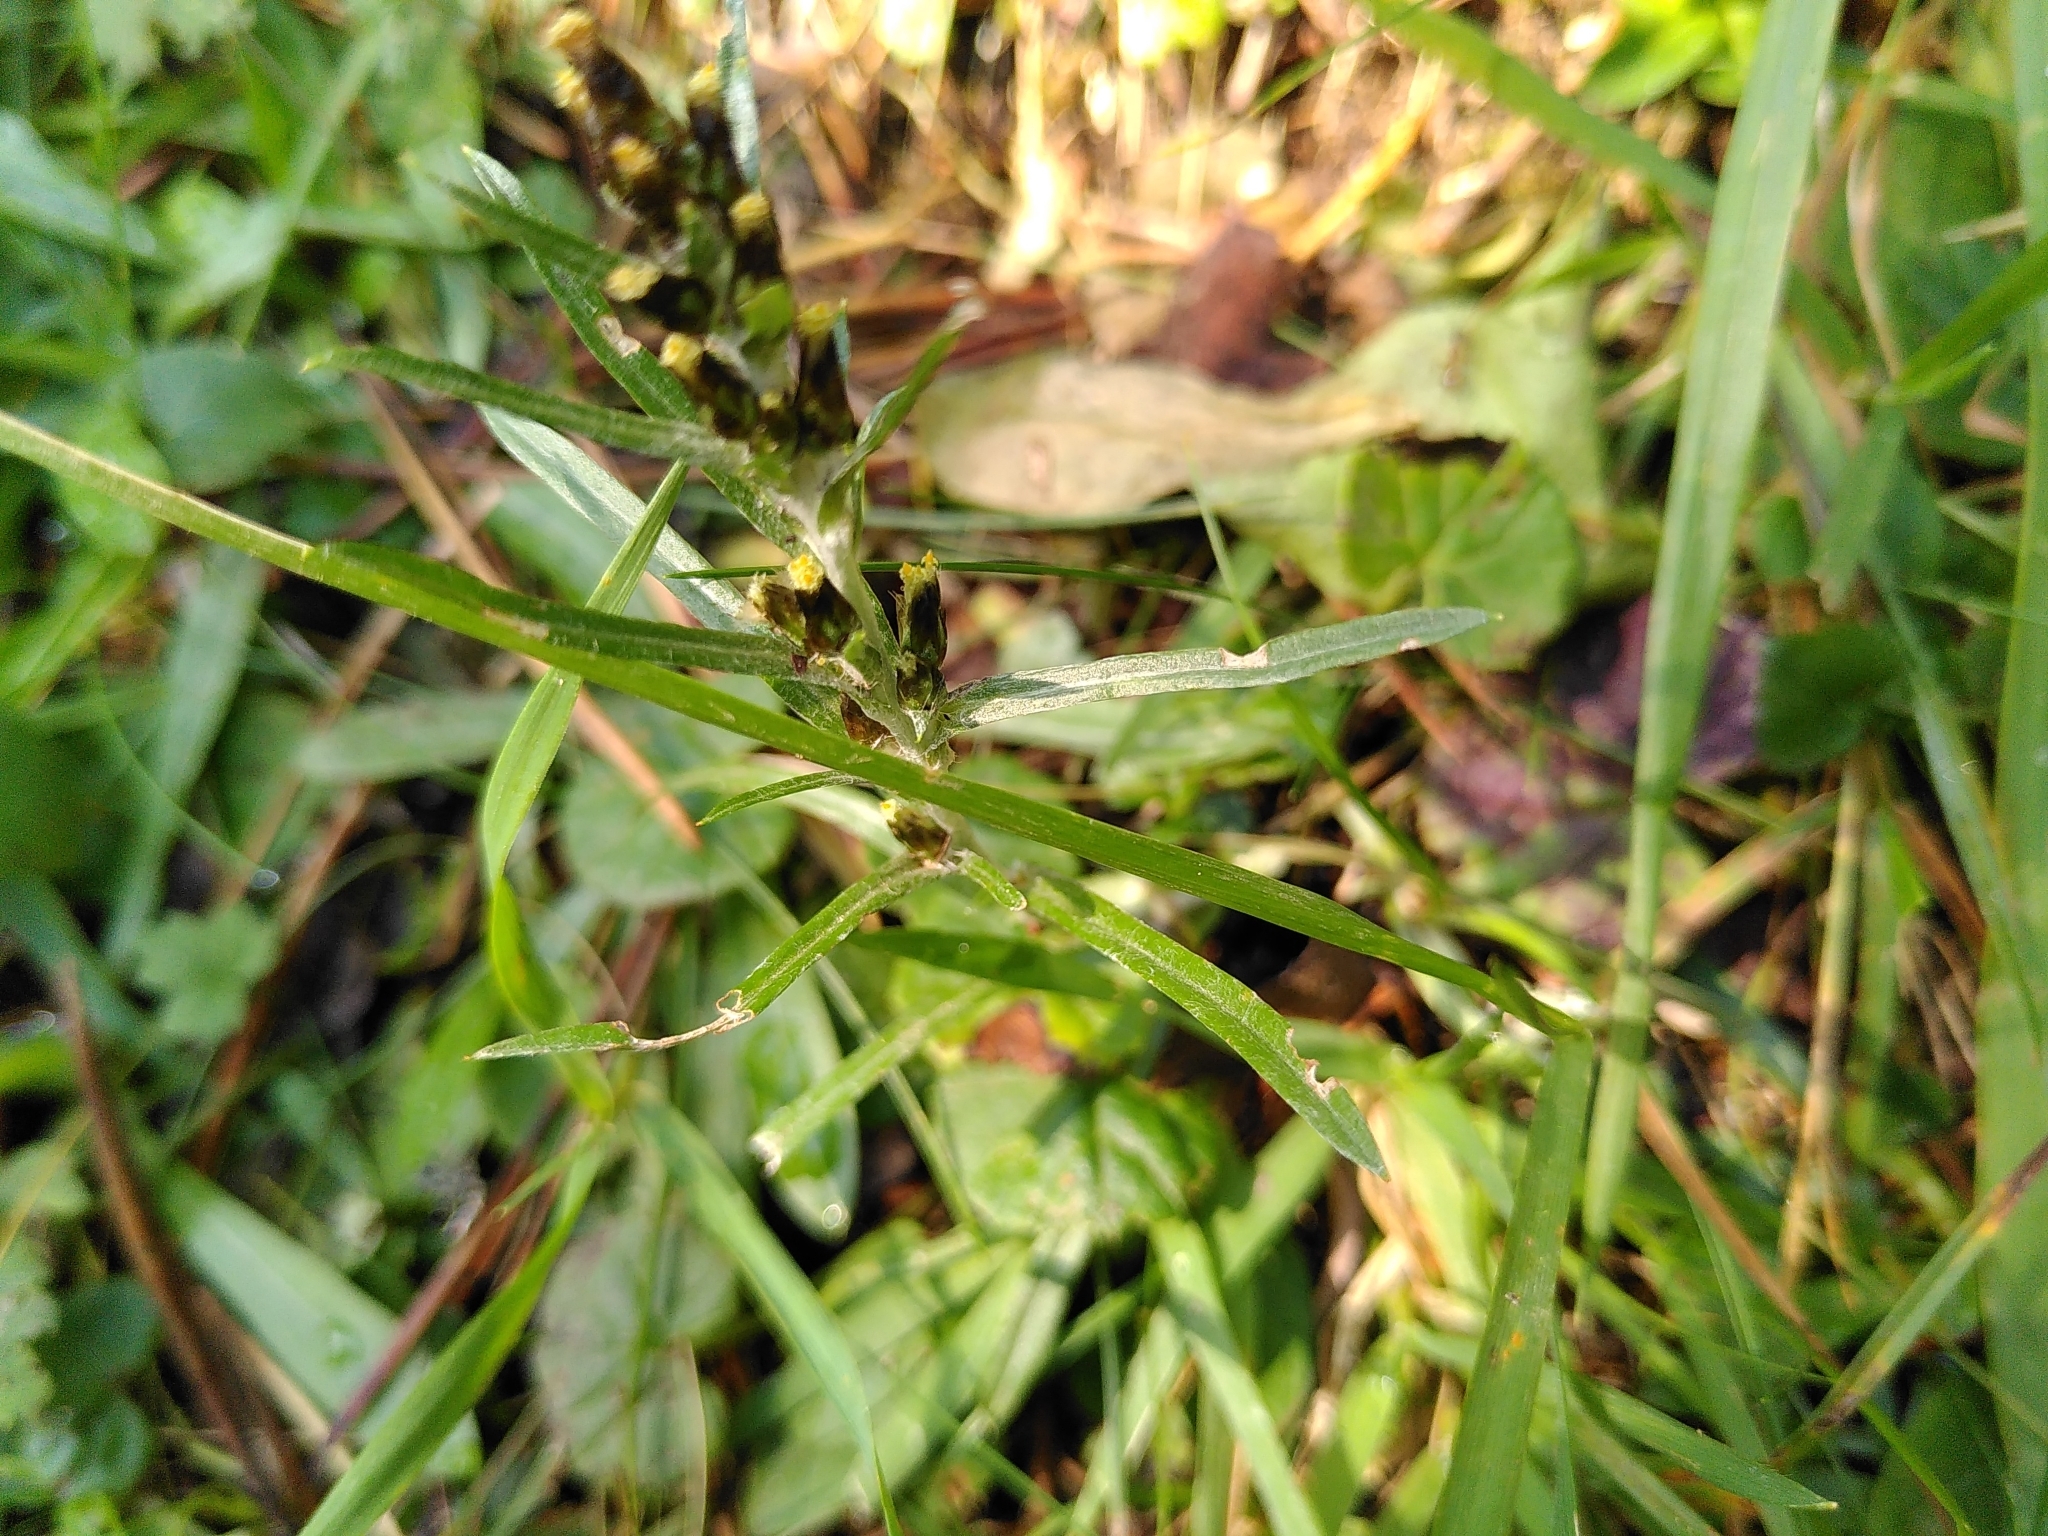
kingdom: Plantae
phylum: Tracheophyta
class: Magnoliopsida
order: Asterales
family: Asteraceae
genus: Omalotheca
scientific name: Omalotheca sylvatica
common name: Heath cudweed
